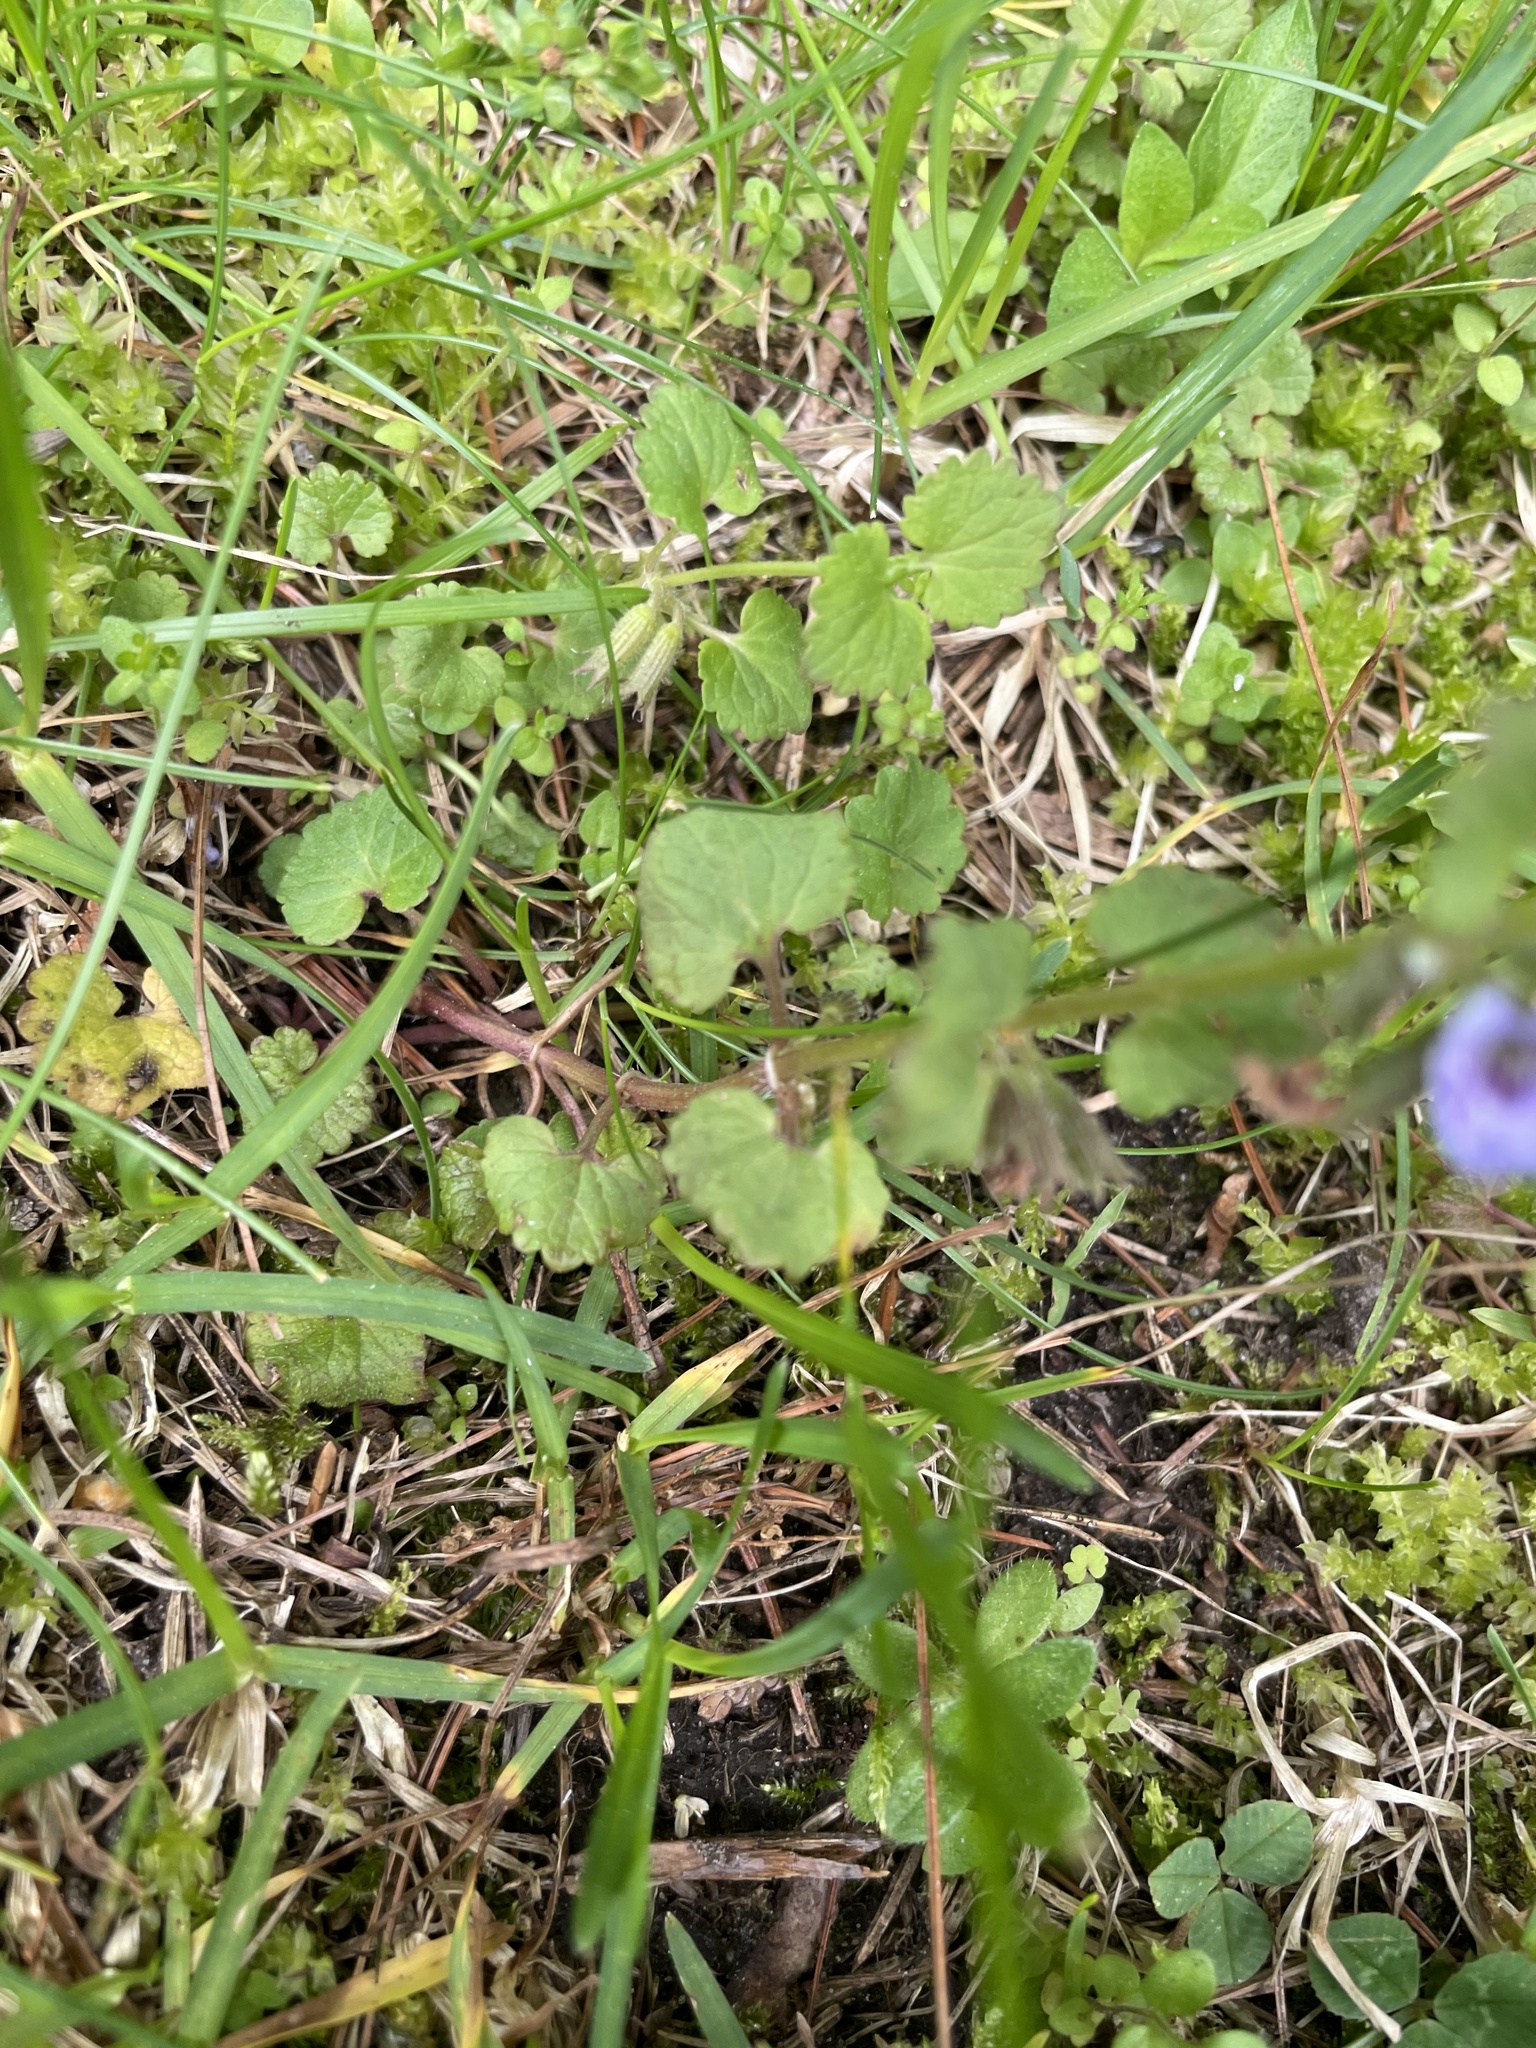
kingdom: Plantae
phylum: Tracheophyta
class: Magnoliopsida
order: Lamiales
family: Lamiaceae
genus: Glechoma
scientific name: Glechoma hederacea
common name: Ground ivy
